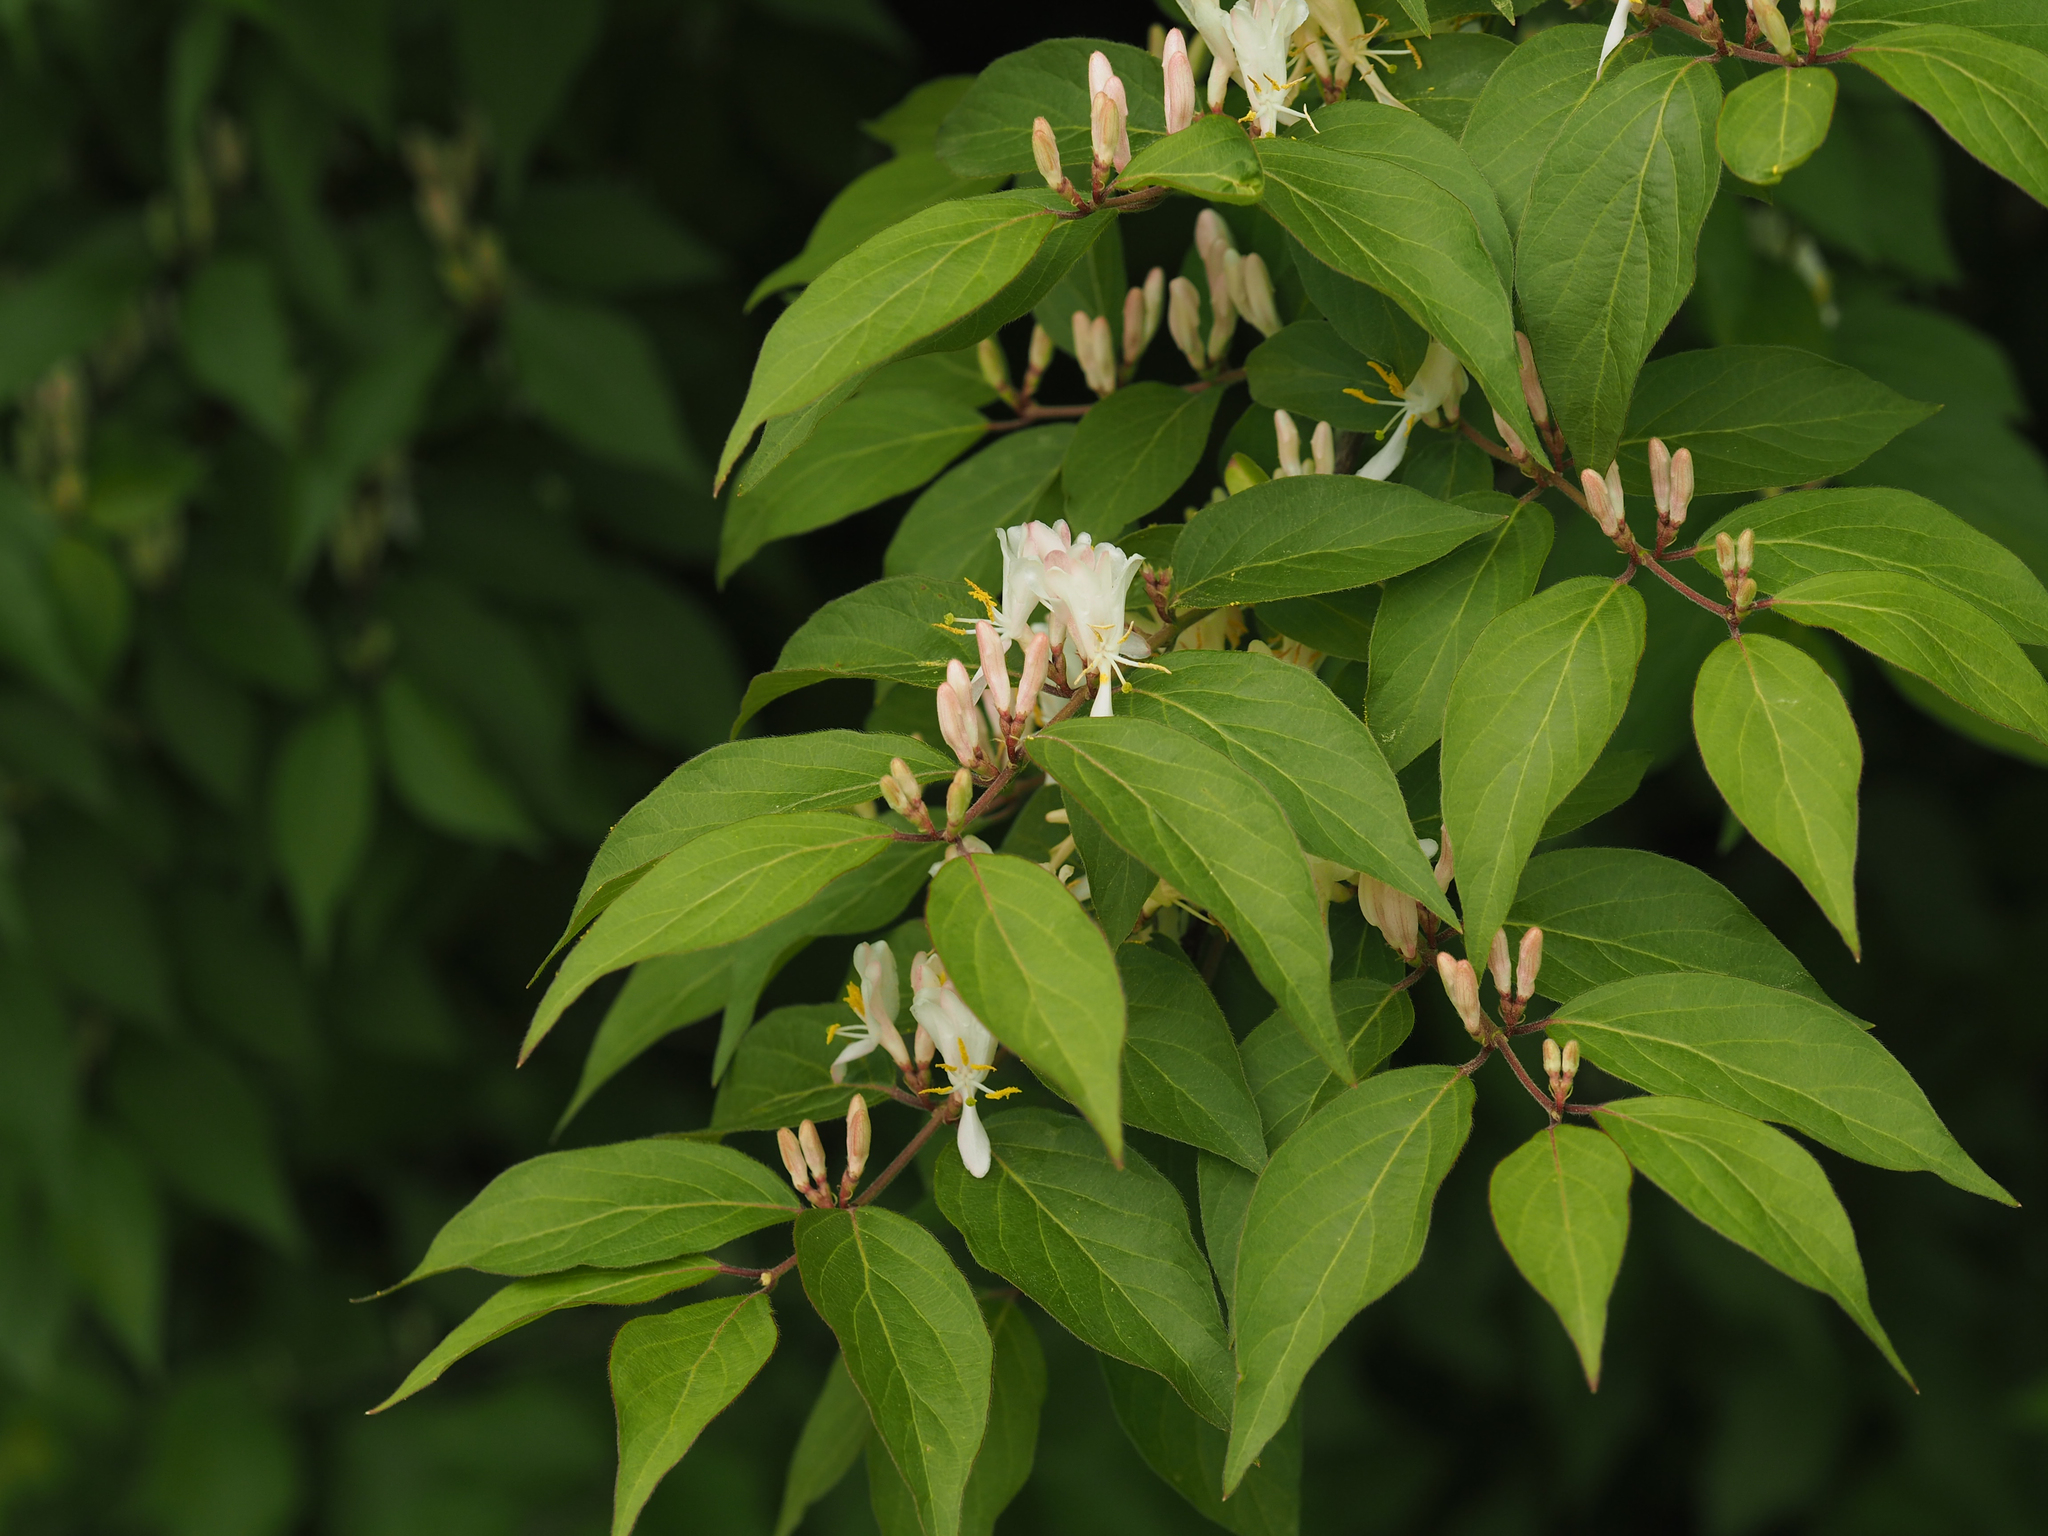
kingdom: Plantae
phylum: Tracheophyta
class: Magnoliopsida
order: Dipsacales
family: Caprifoliaceae
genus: Lonicera
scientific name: Lonicera maackii
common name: Amur honeysuckle
